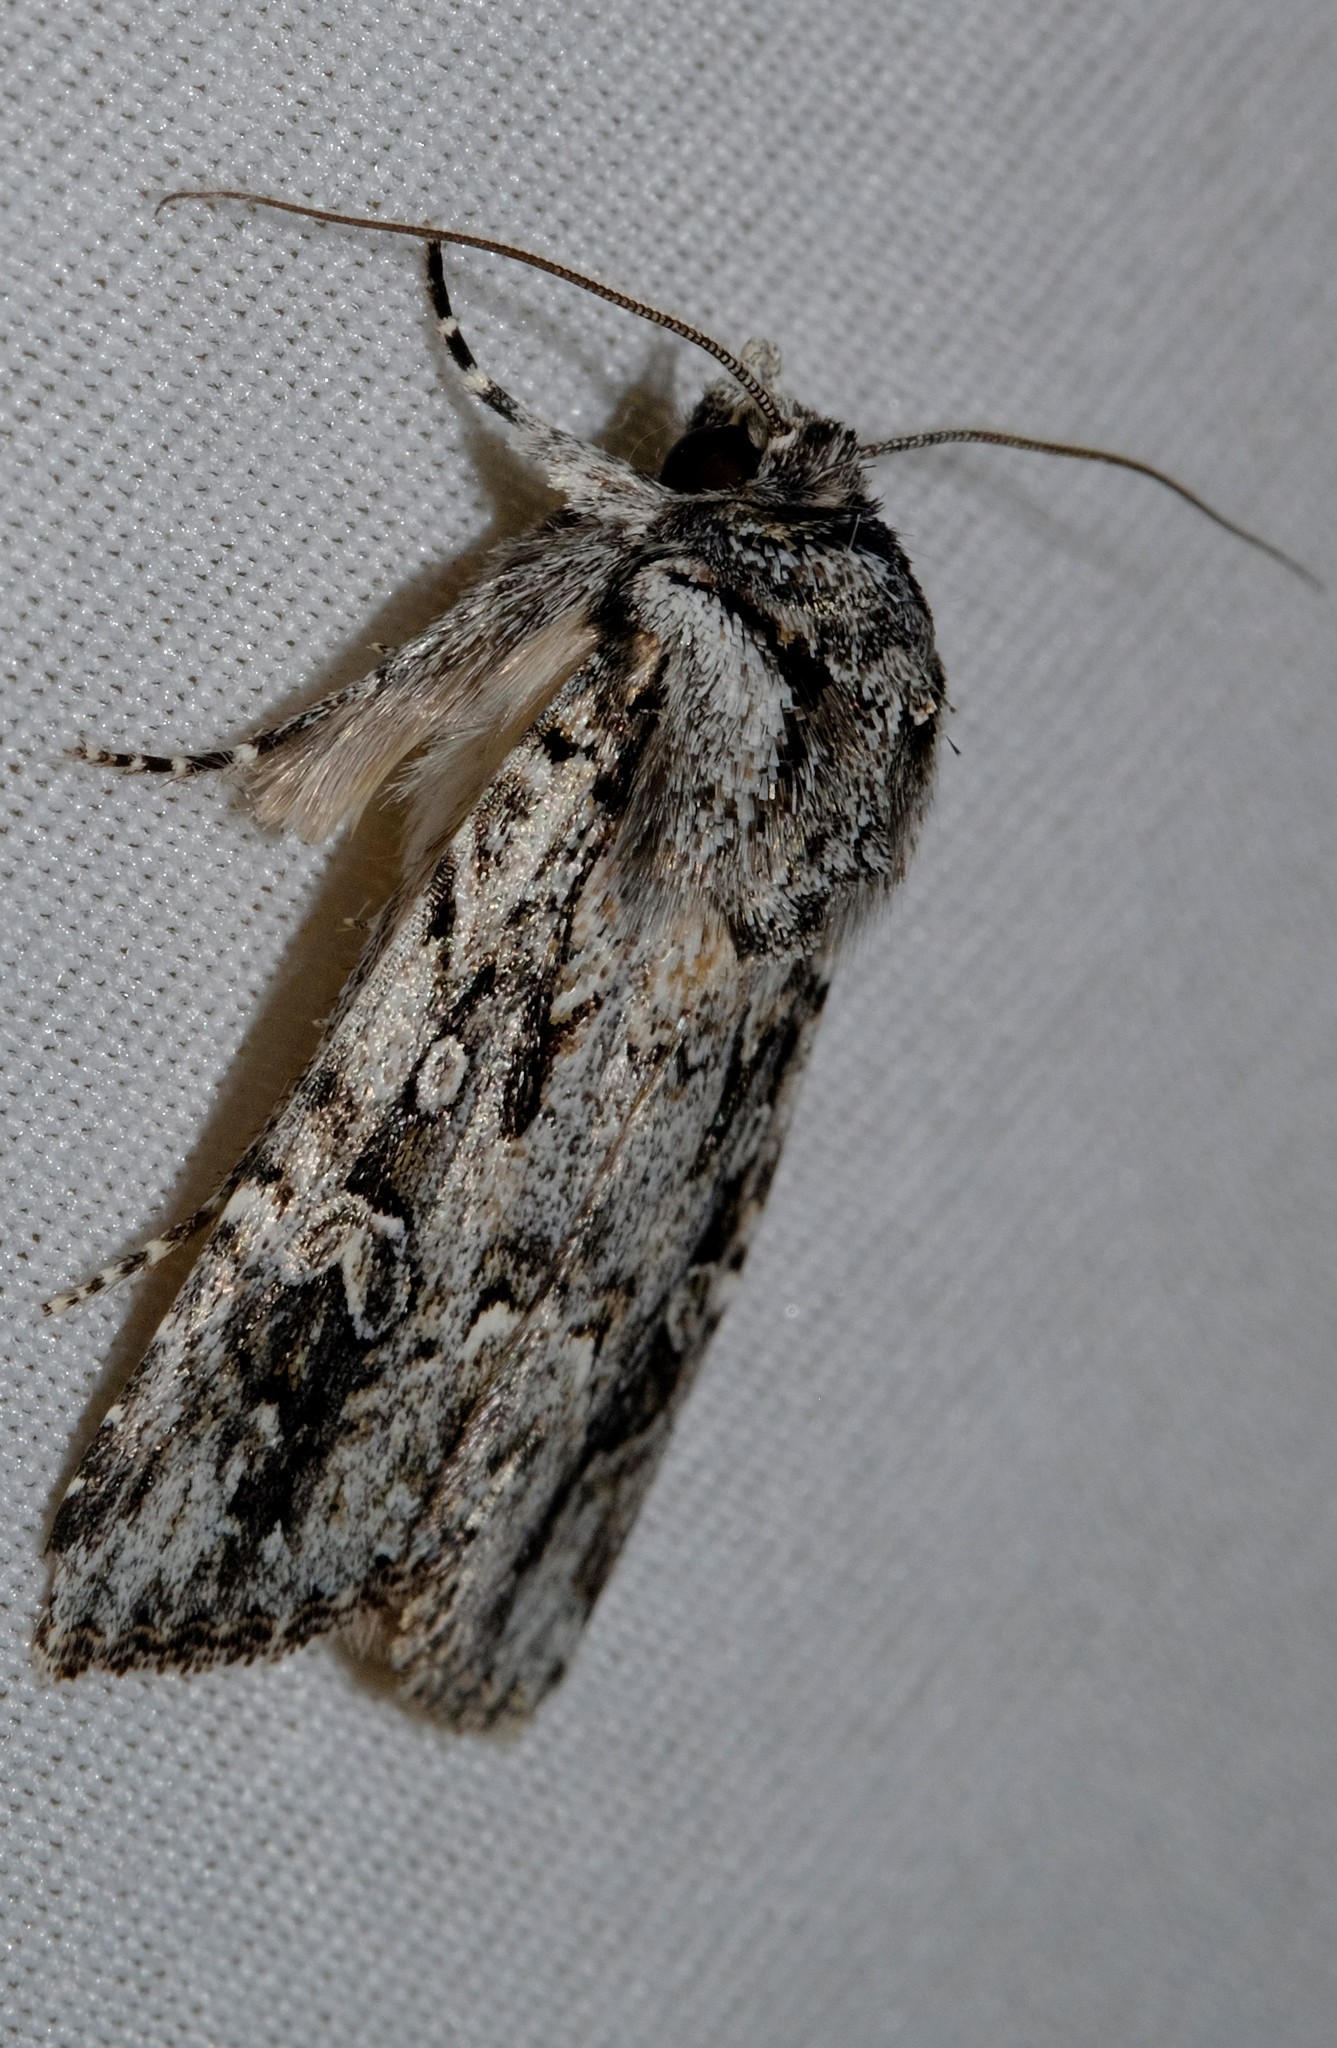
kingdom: Animalia
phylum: Arthropoda
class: Insecta
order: Lepidoptera
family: Noctuidae
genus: Ectopatria
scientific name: Ectopatria aspera
